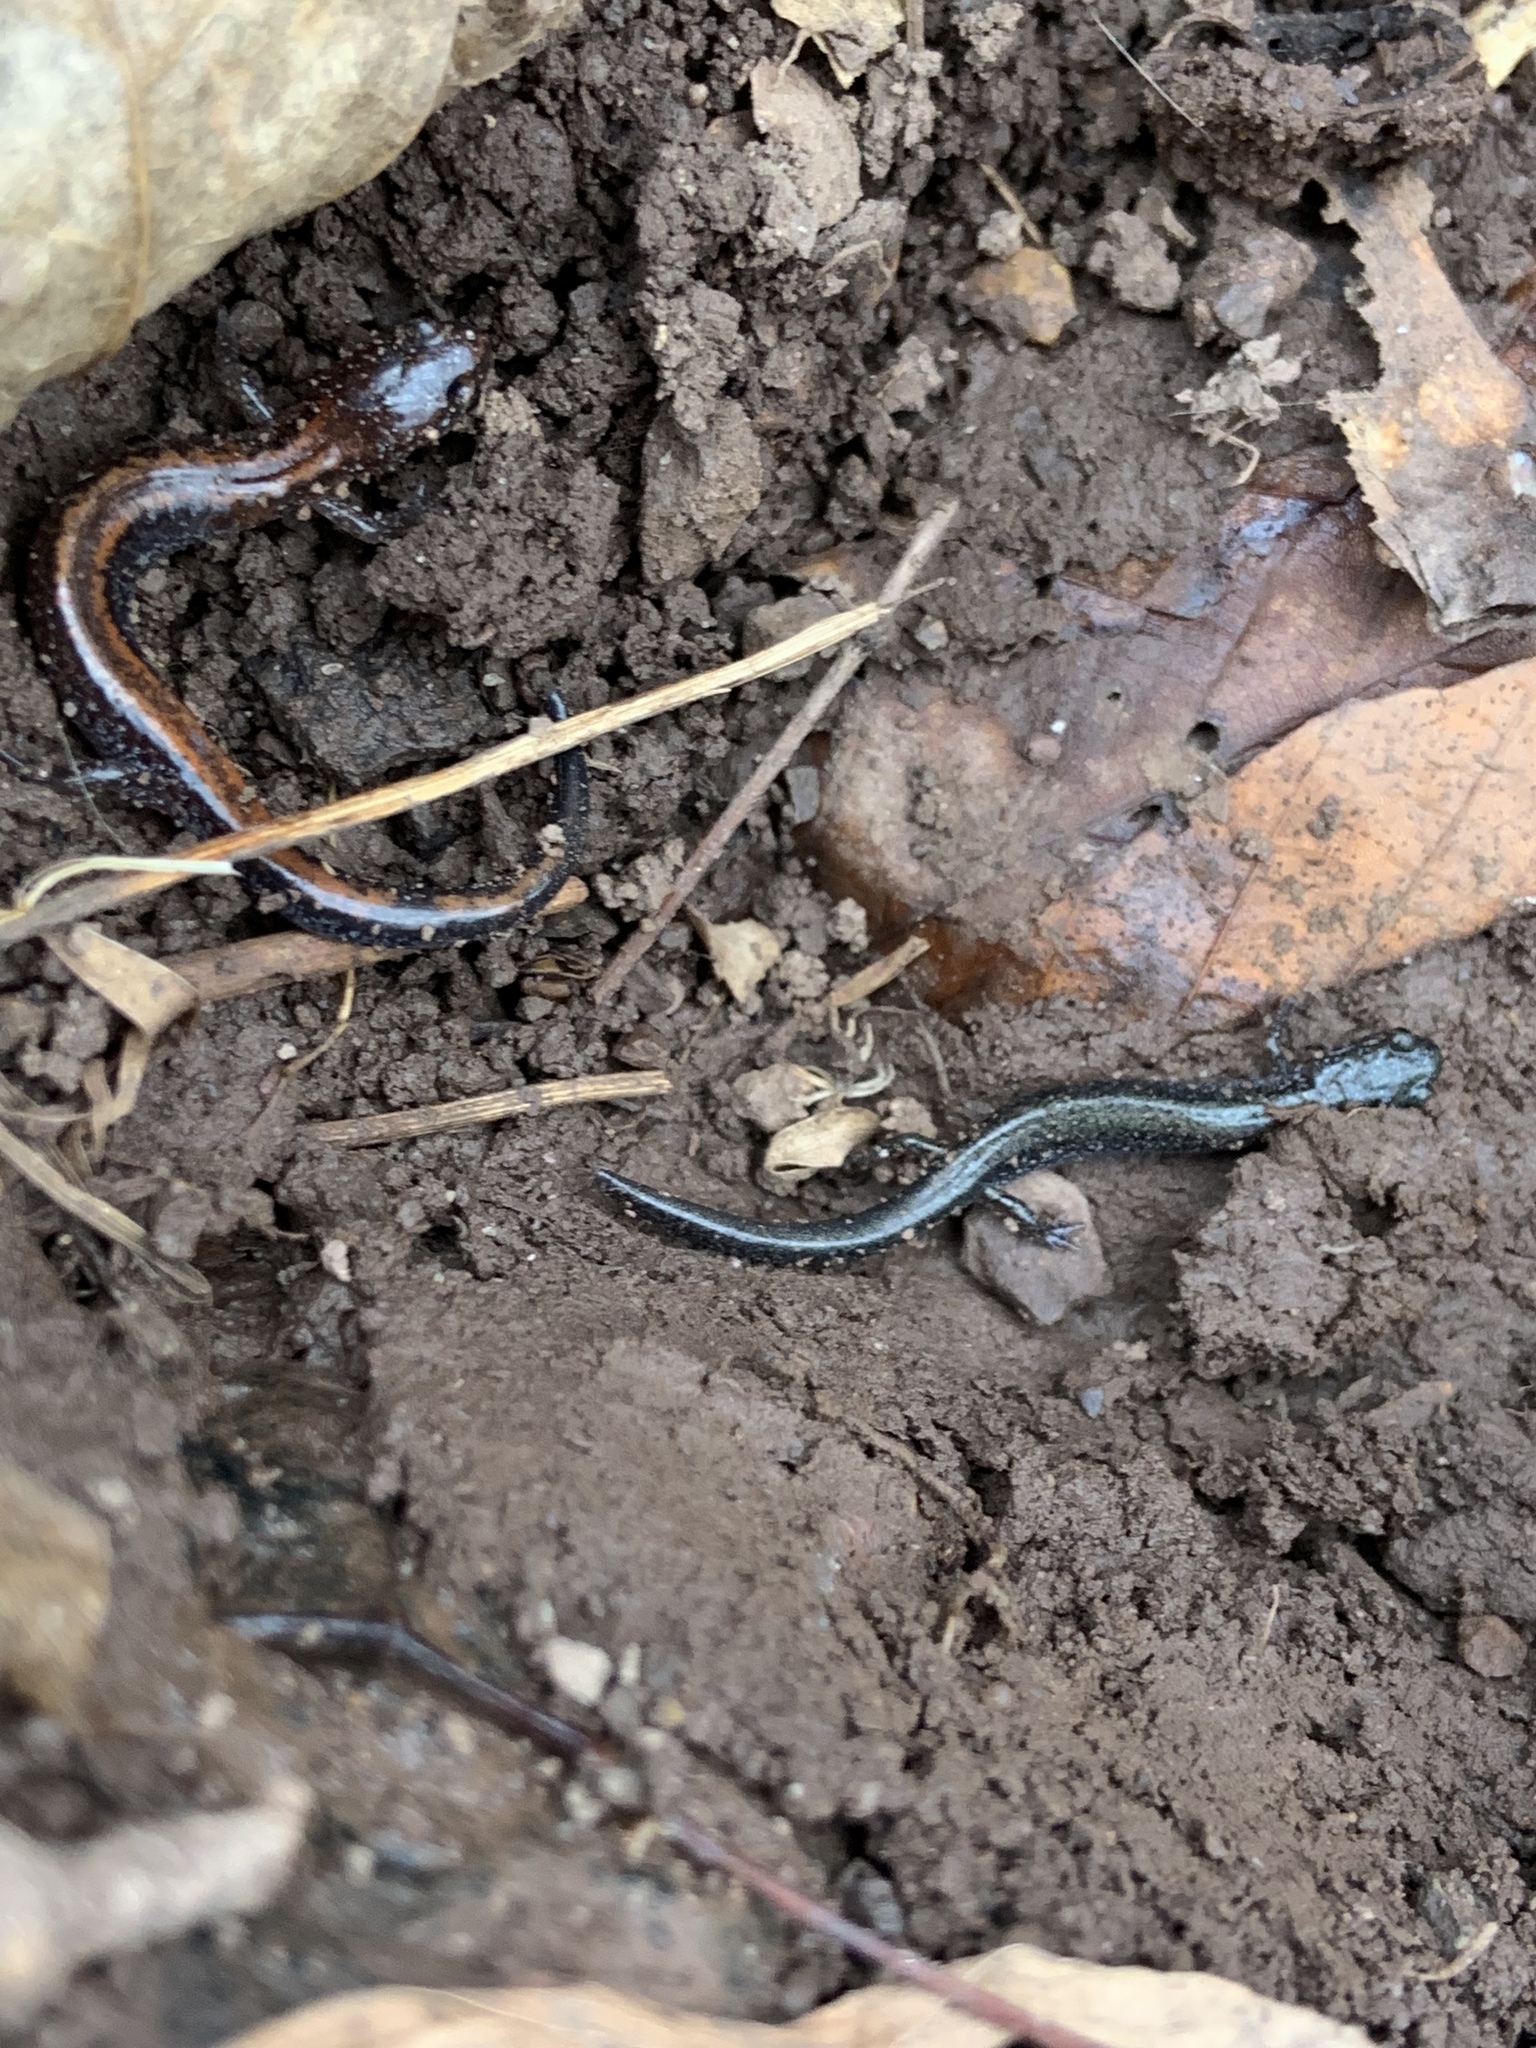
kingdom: Animalia
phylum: Chordata
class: Amphibia
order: Caudata
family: Plethodontidae
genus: Plethodon
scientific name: Plethodon cinereus
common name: Redback salamander
